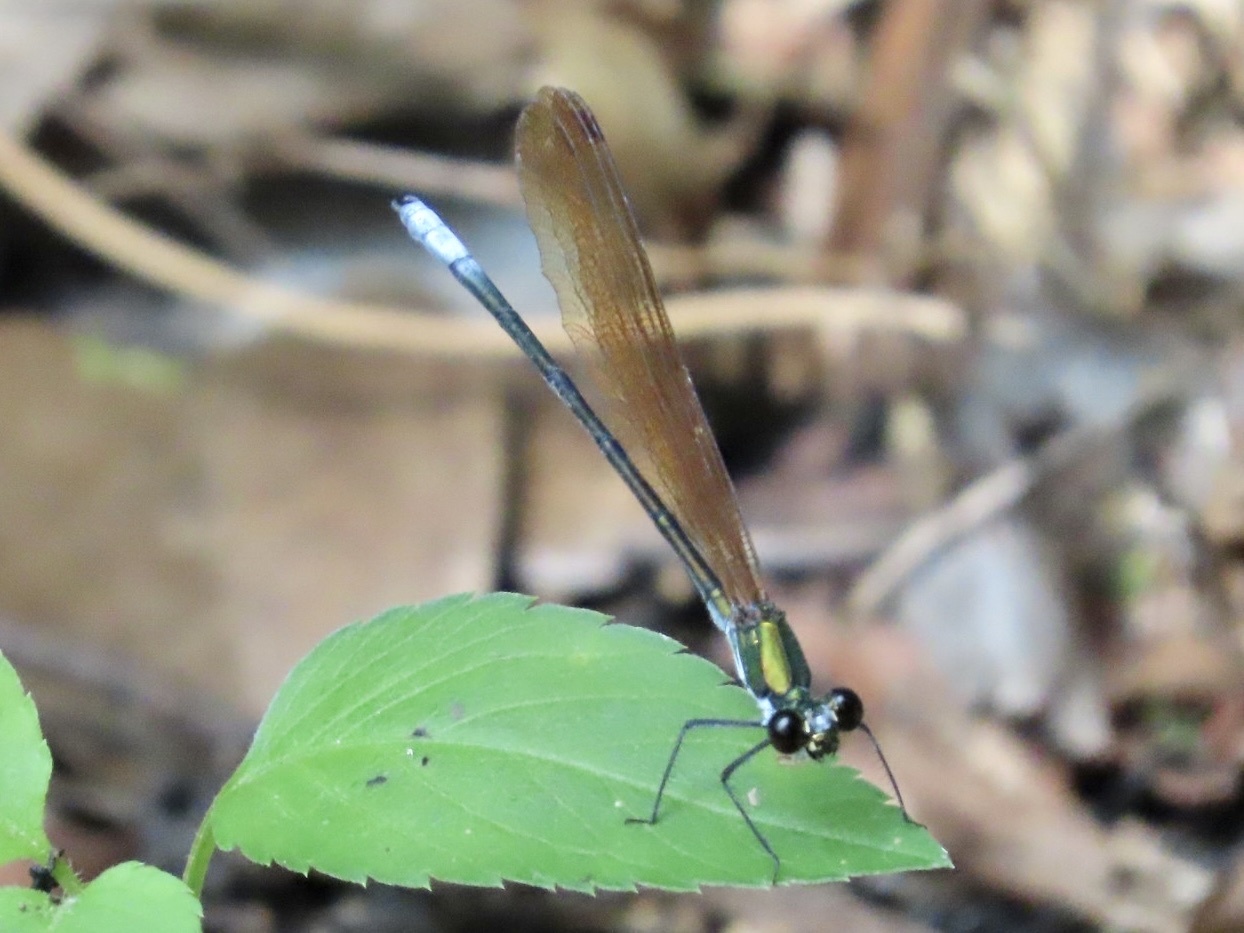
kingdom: Animalia
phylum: Arthropoda
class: Insecta
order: Odonata
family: Calopterygidae
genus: Mnais
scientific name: Mnais mneme
